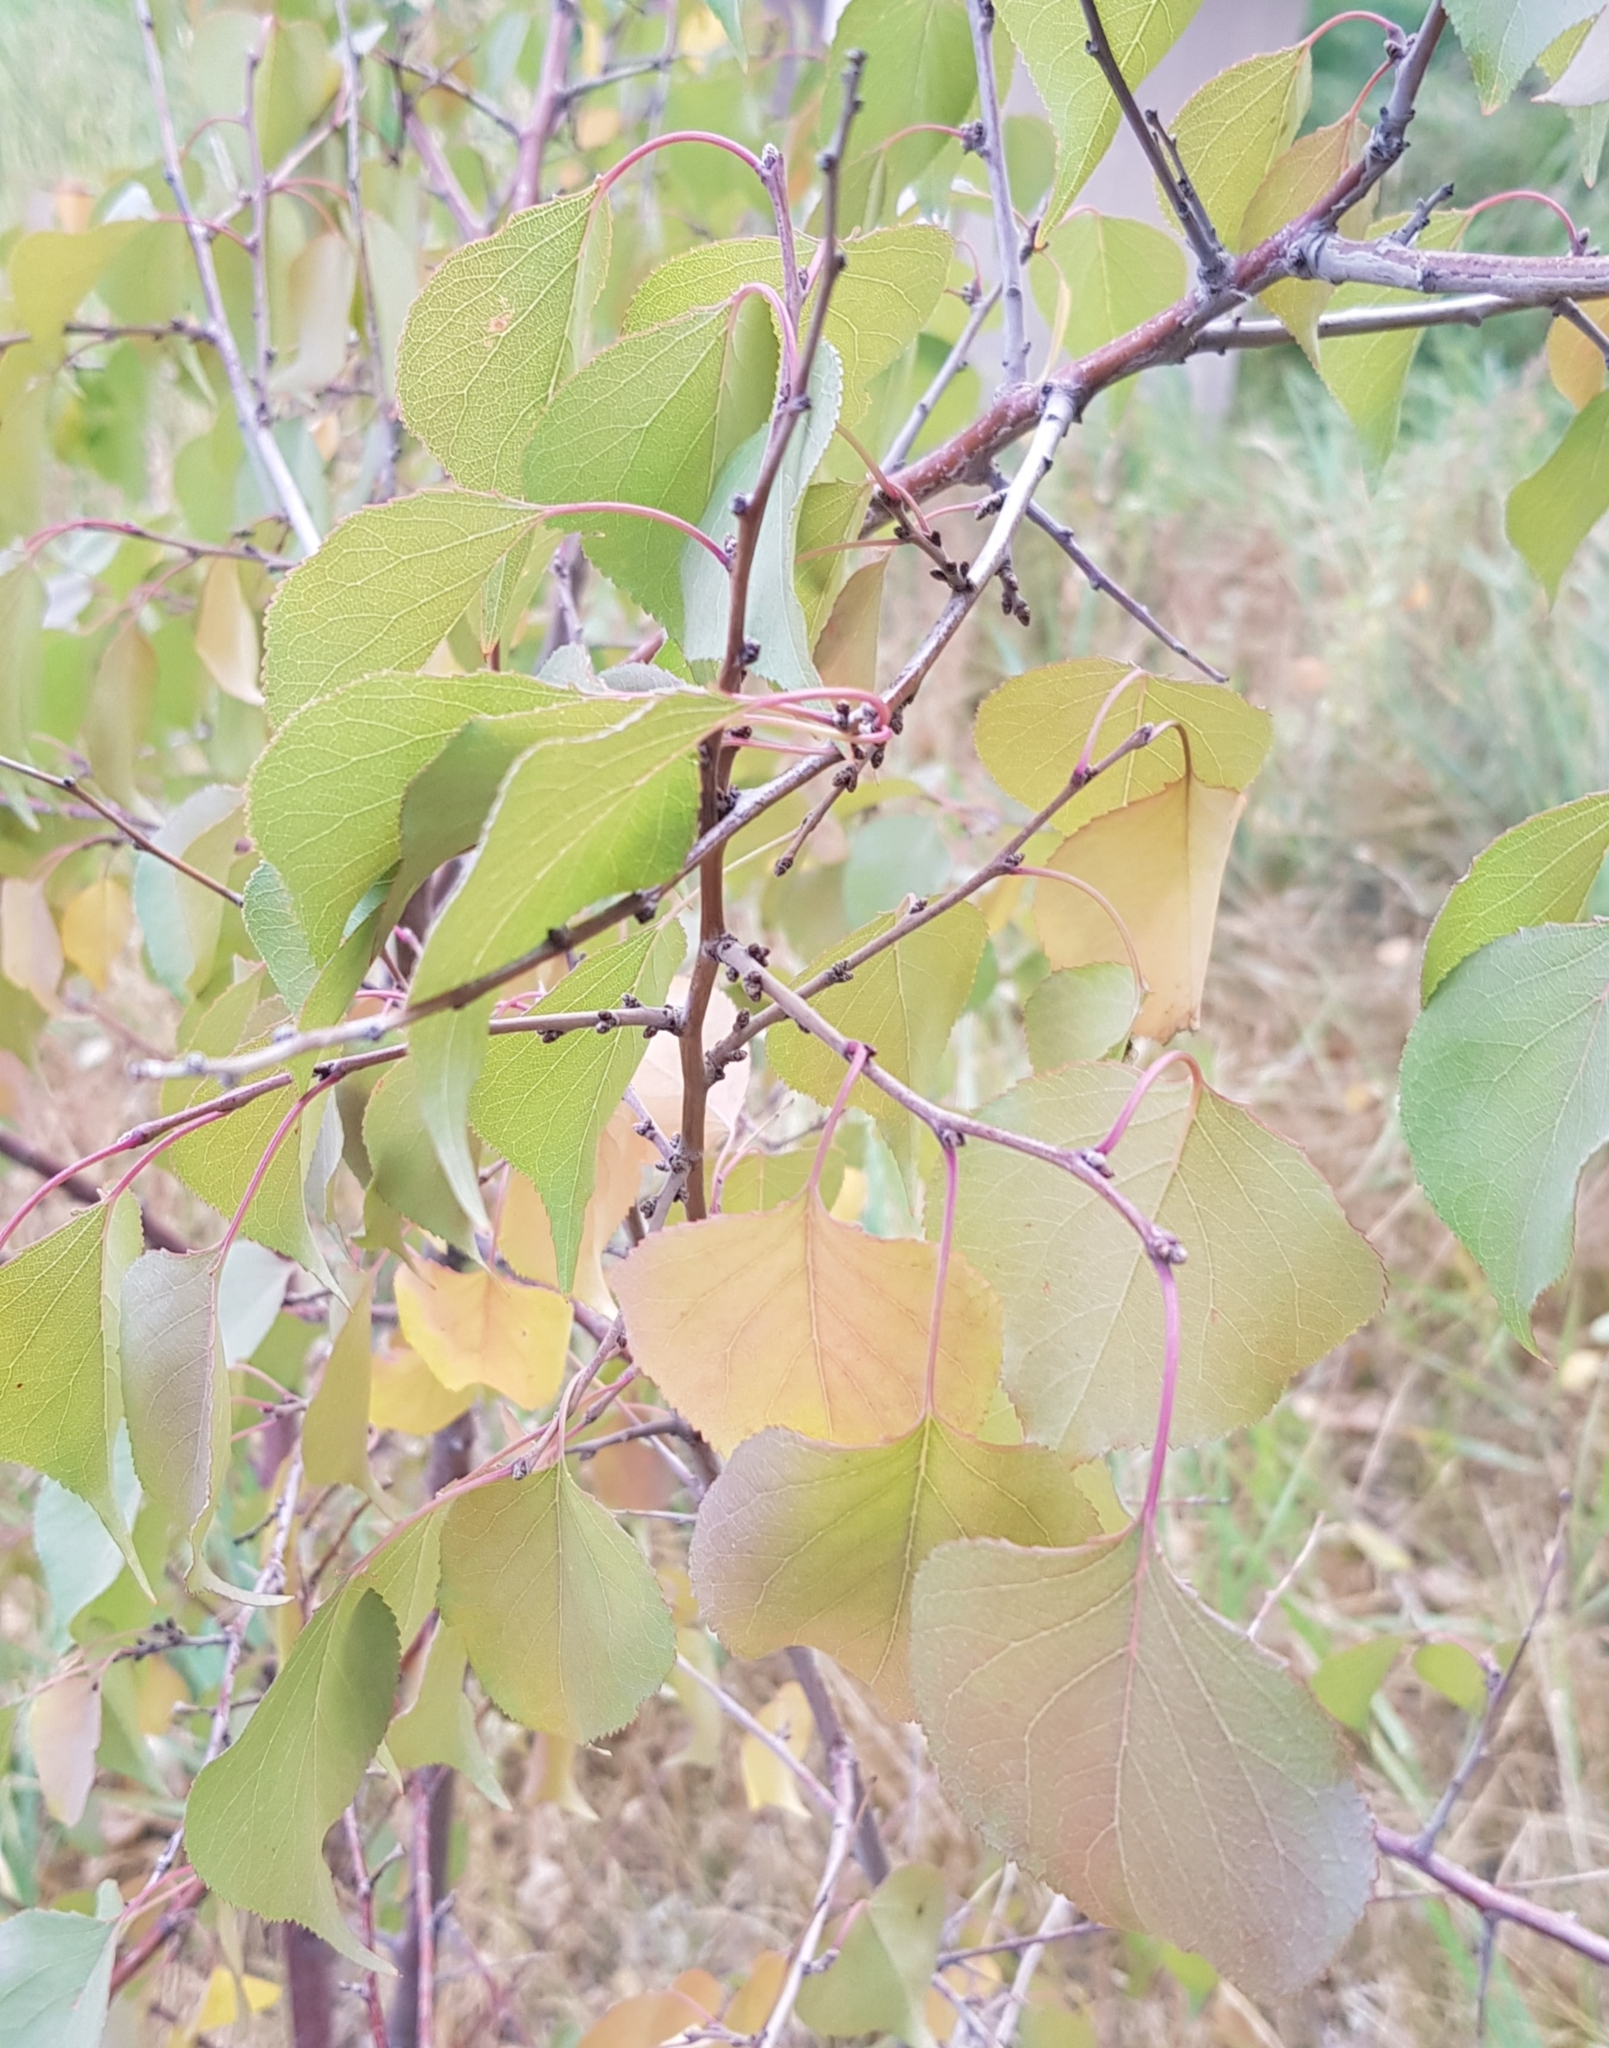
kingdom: Plantae
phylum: Tracheophyta
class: Magnoliopsida
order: Rosales
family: Rosaceae
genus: Prunus
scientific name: Prunus armeniaca
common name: Apricot
